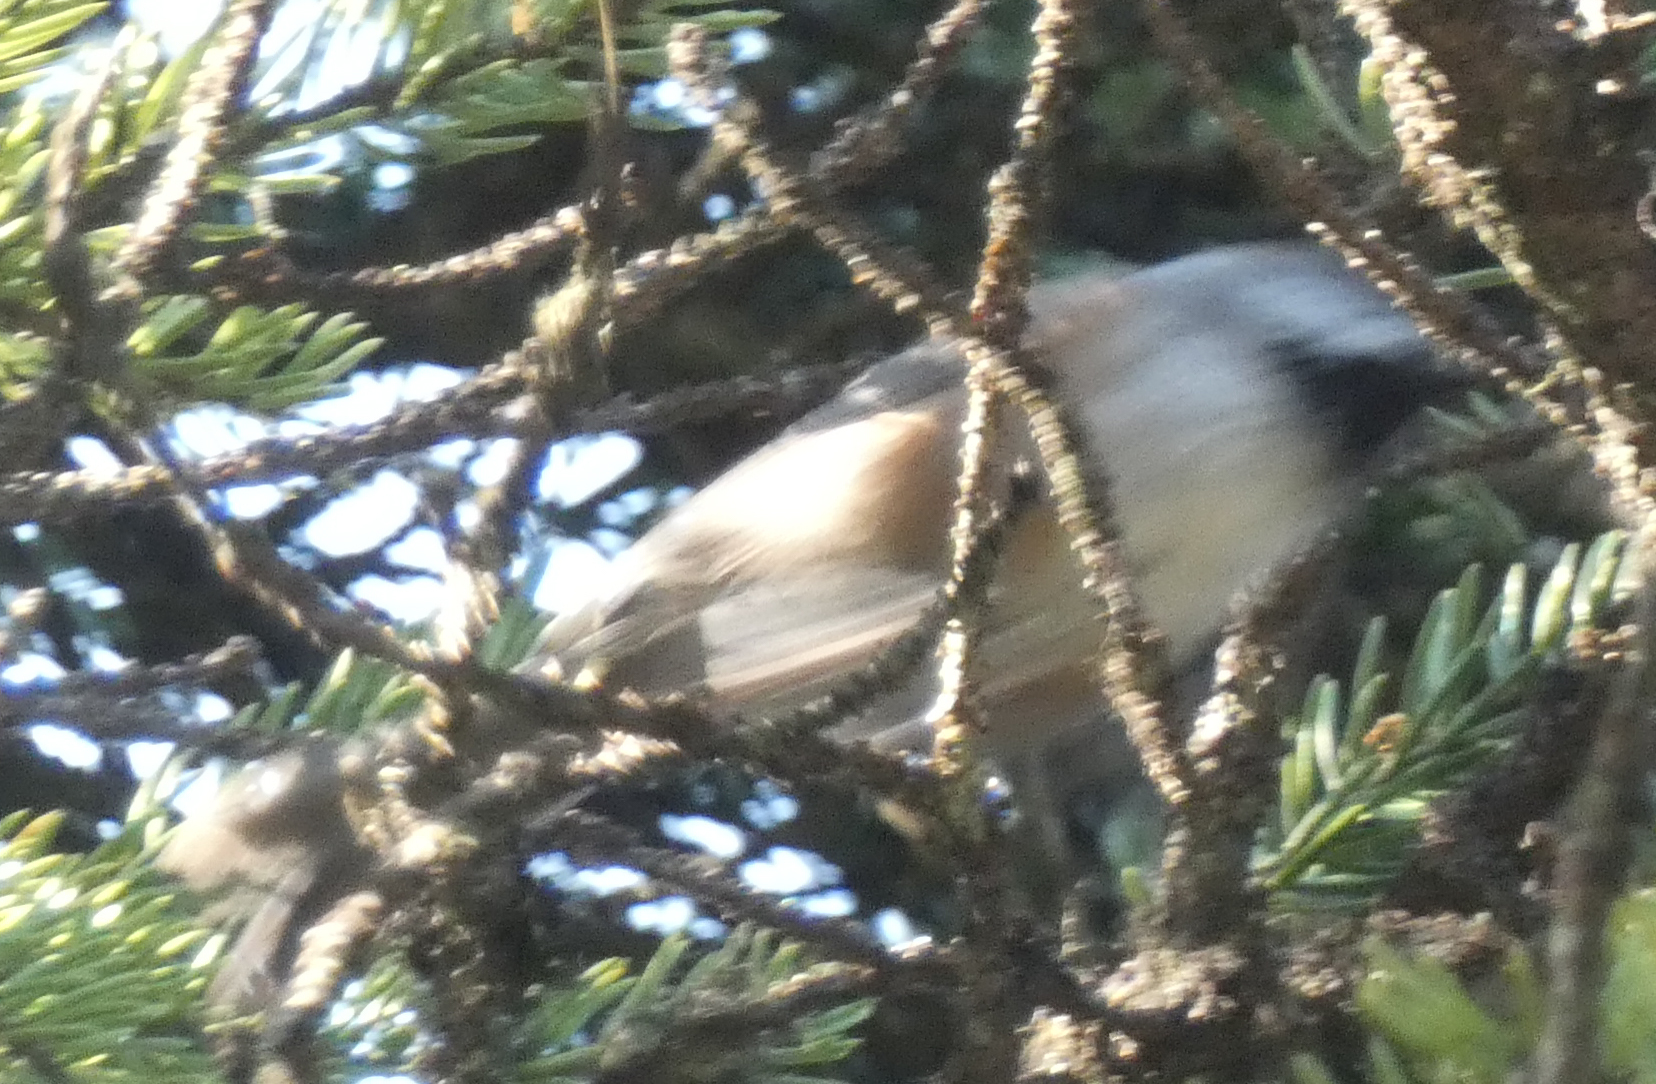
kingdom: Animalia
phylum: Chordata
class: Aves
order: Passeriformes
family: Paridae
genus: Poecile
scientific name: Poecile hudsonicus
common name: Boreal chickadee
